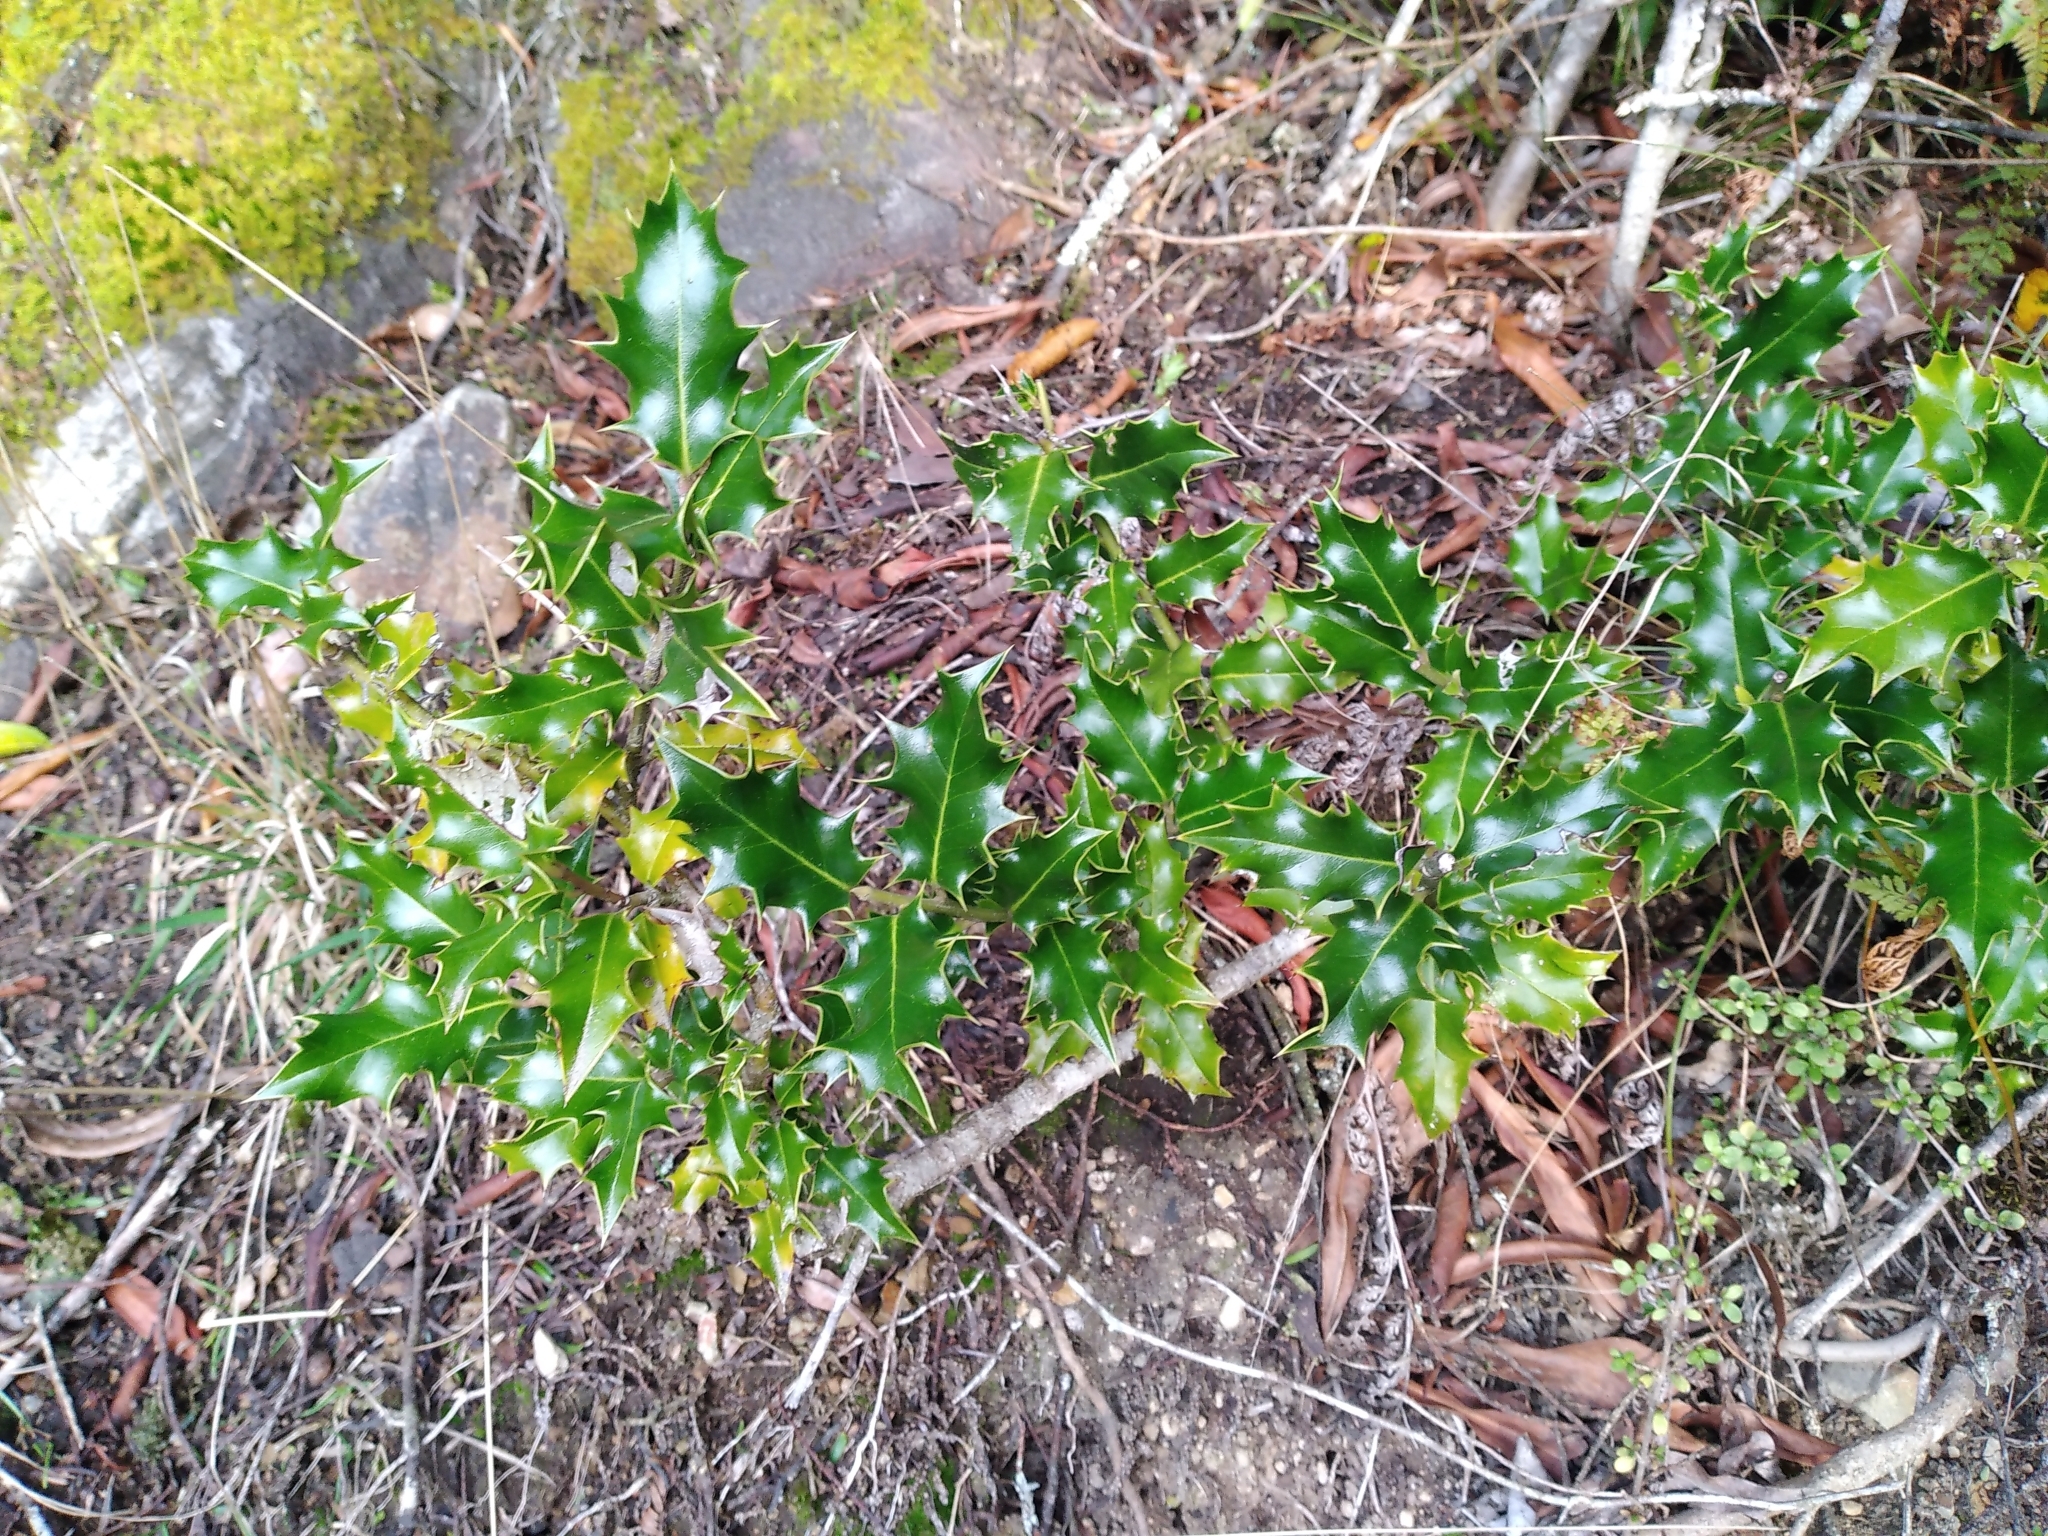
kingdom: Plantae
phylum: Tracheophyta
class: Magnoliopsida
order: Aquifoliales
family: Aquifoliaceae
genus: Ilex
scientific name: Ilex aquifolium
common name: English holly
